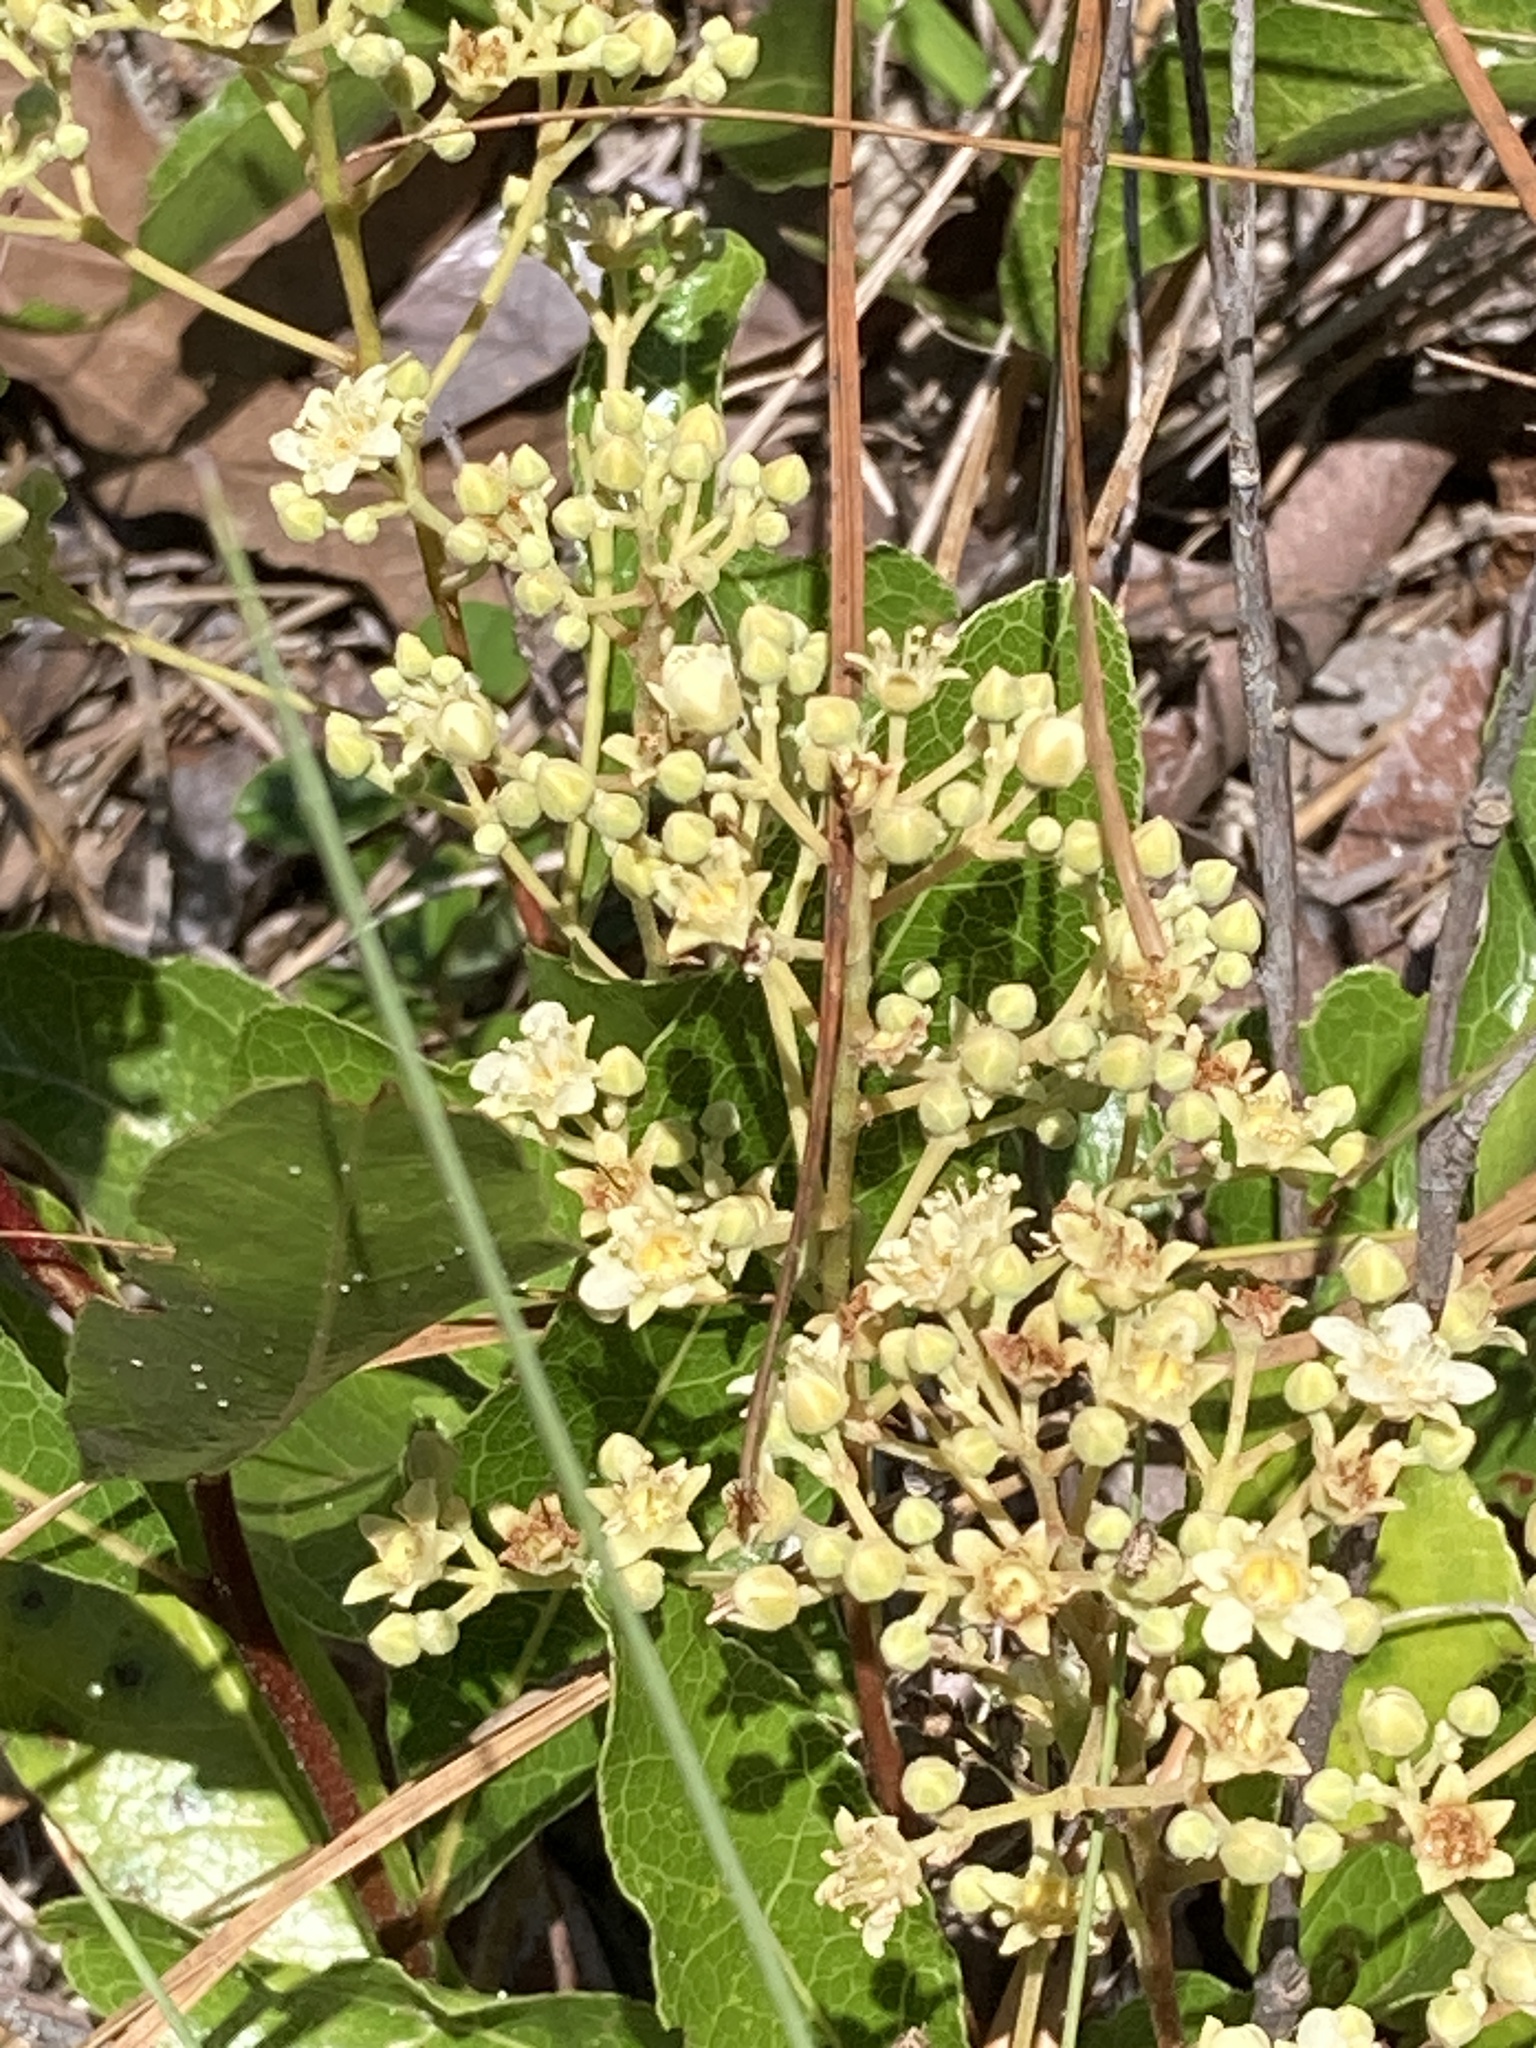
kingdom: Plantae
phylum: Tracheophyta
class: Magnoliopsida
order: Malpighiales
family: Chrysobalanaceae
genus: Geobalanus
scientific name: Geobalanus oblongifolius
